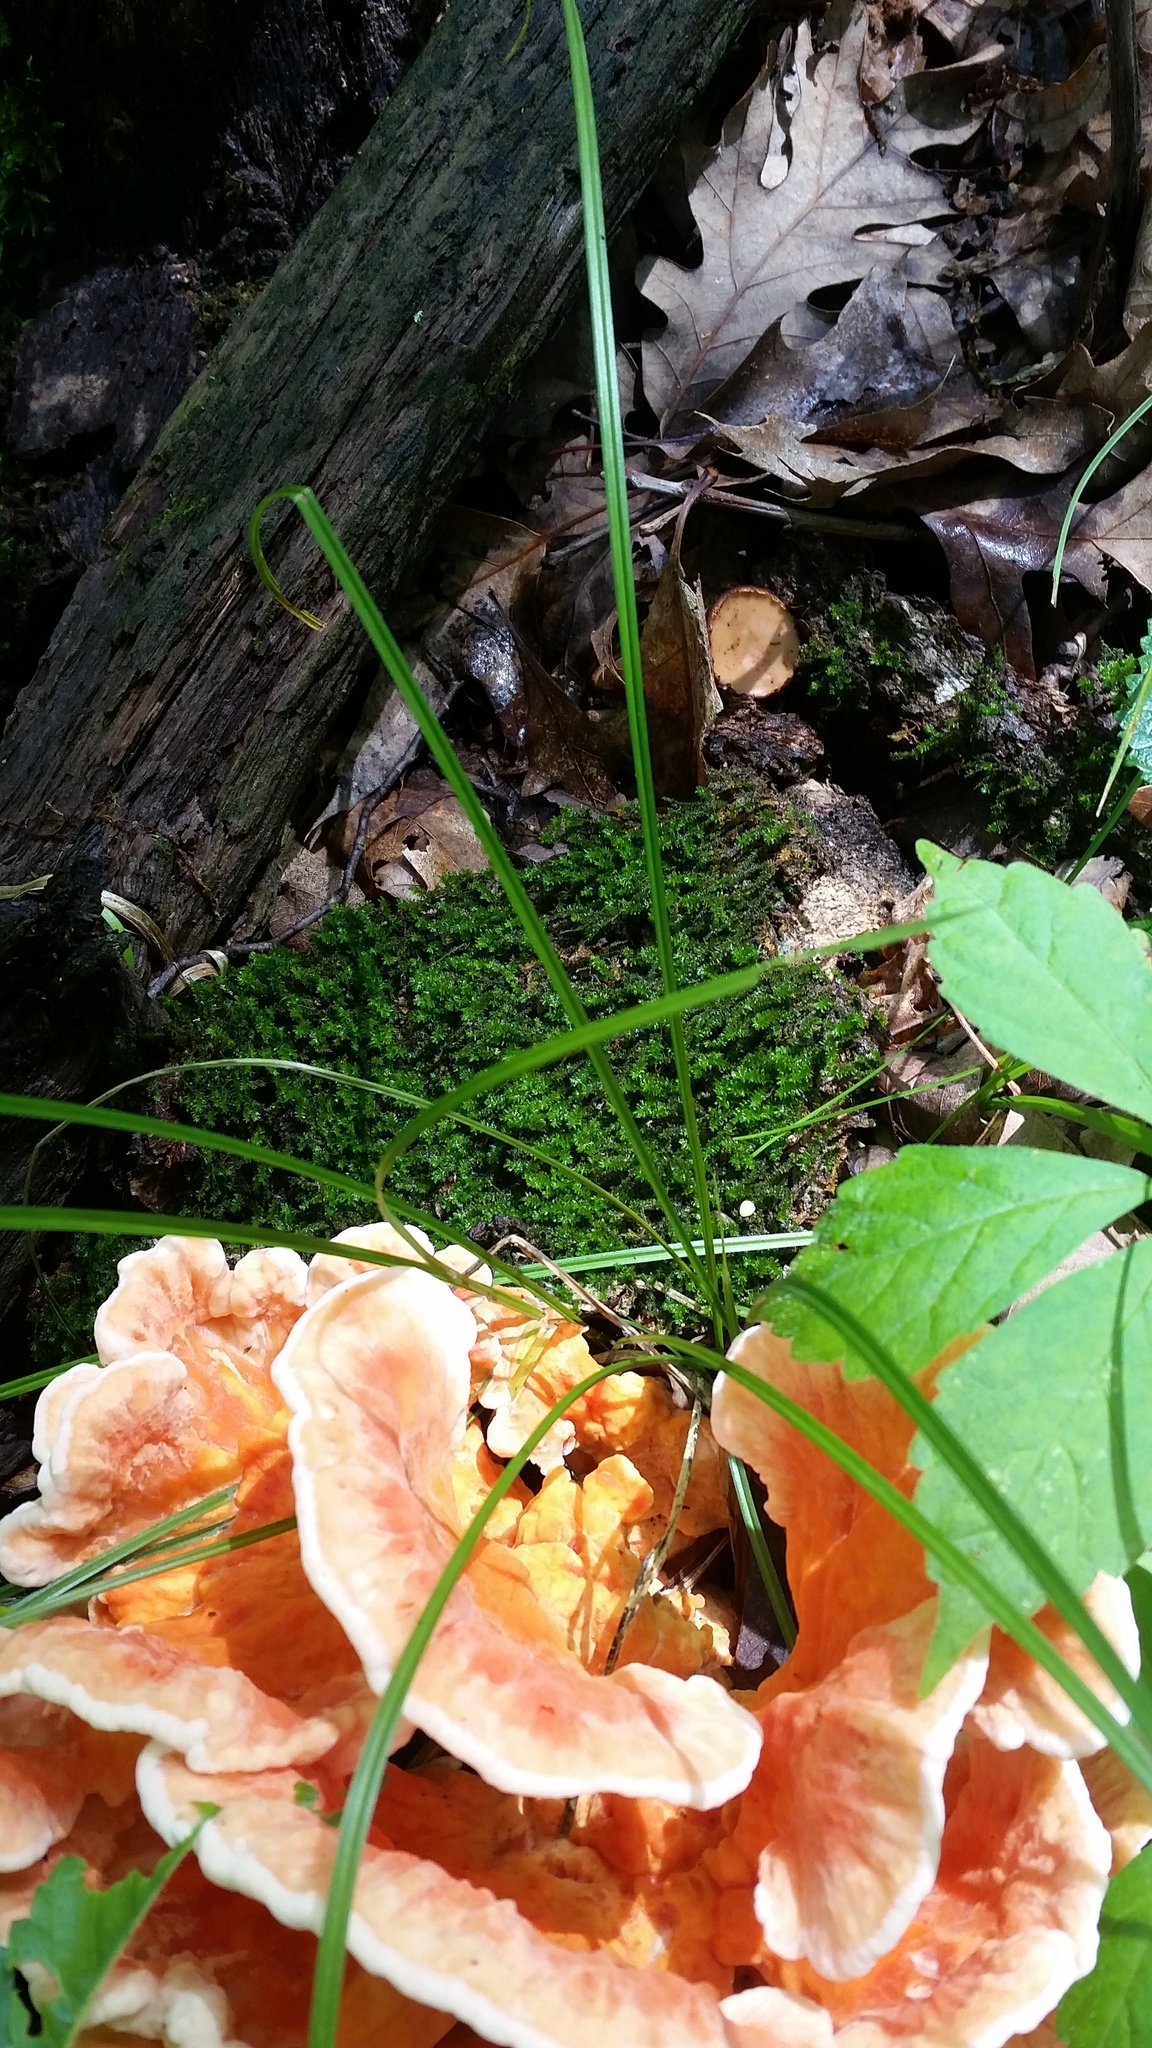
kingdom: Fungi
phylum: Basidiomycota
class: Agaricomycetes
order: Polyporales
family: Laetiporaceae
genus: Laetiporus
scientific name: Laetiporus sulphureus
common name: Chicken of the woods
